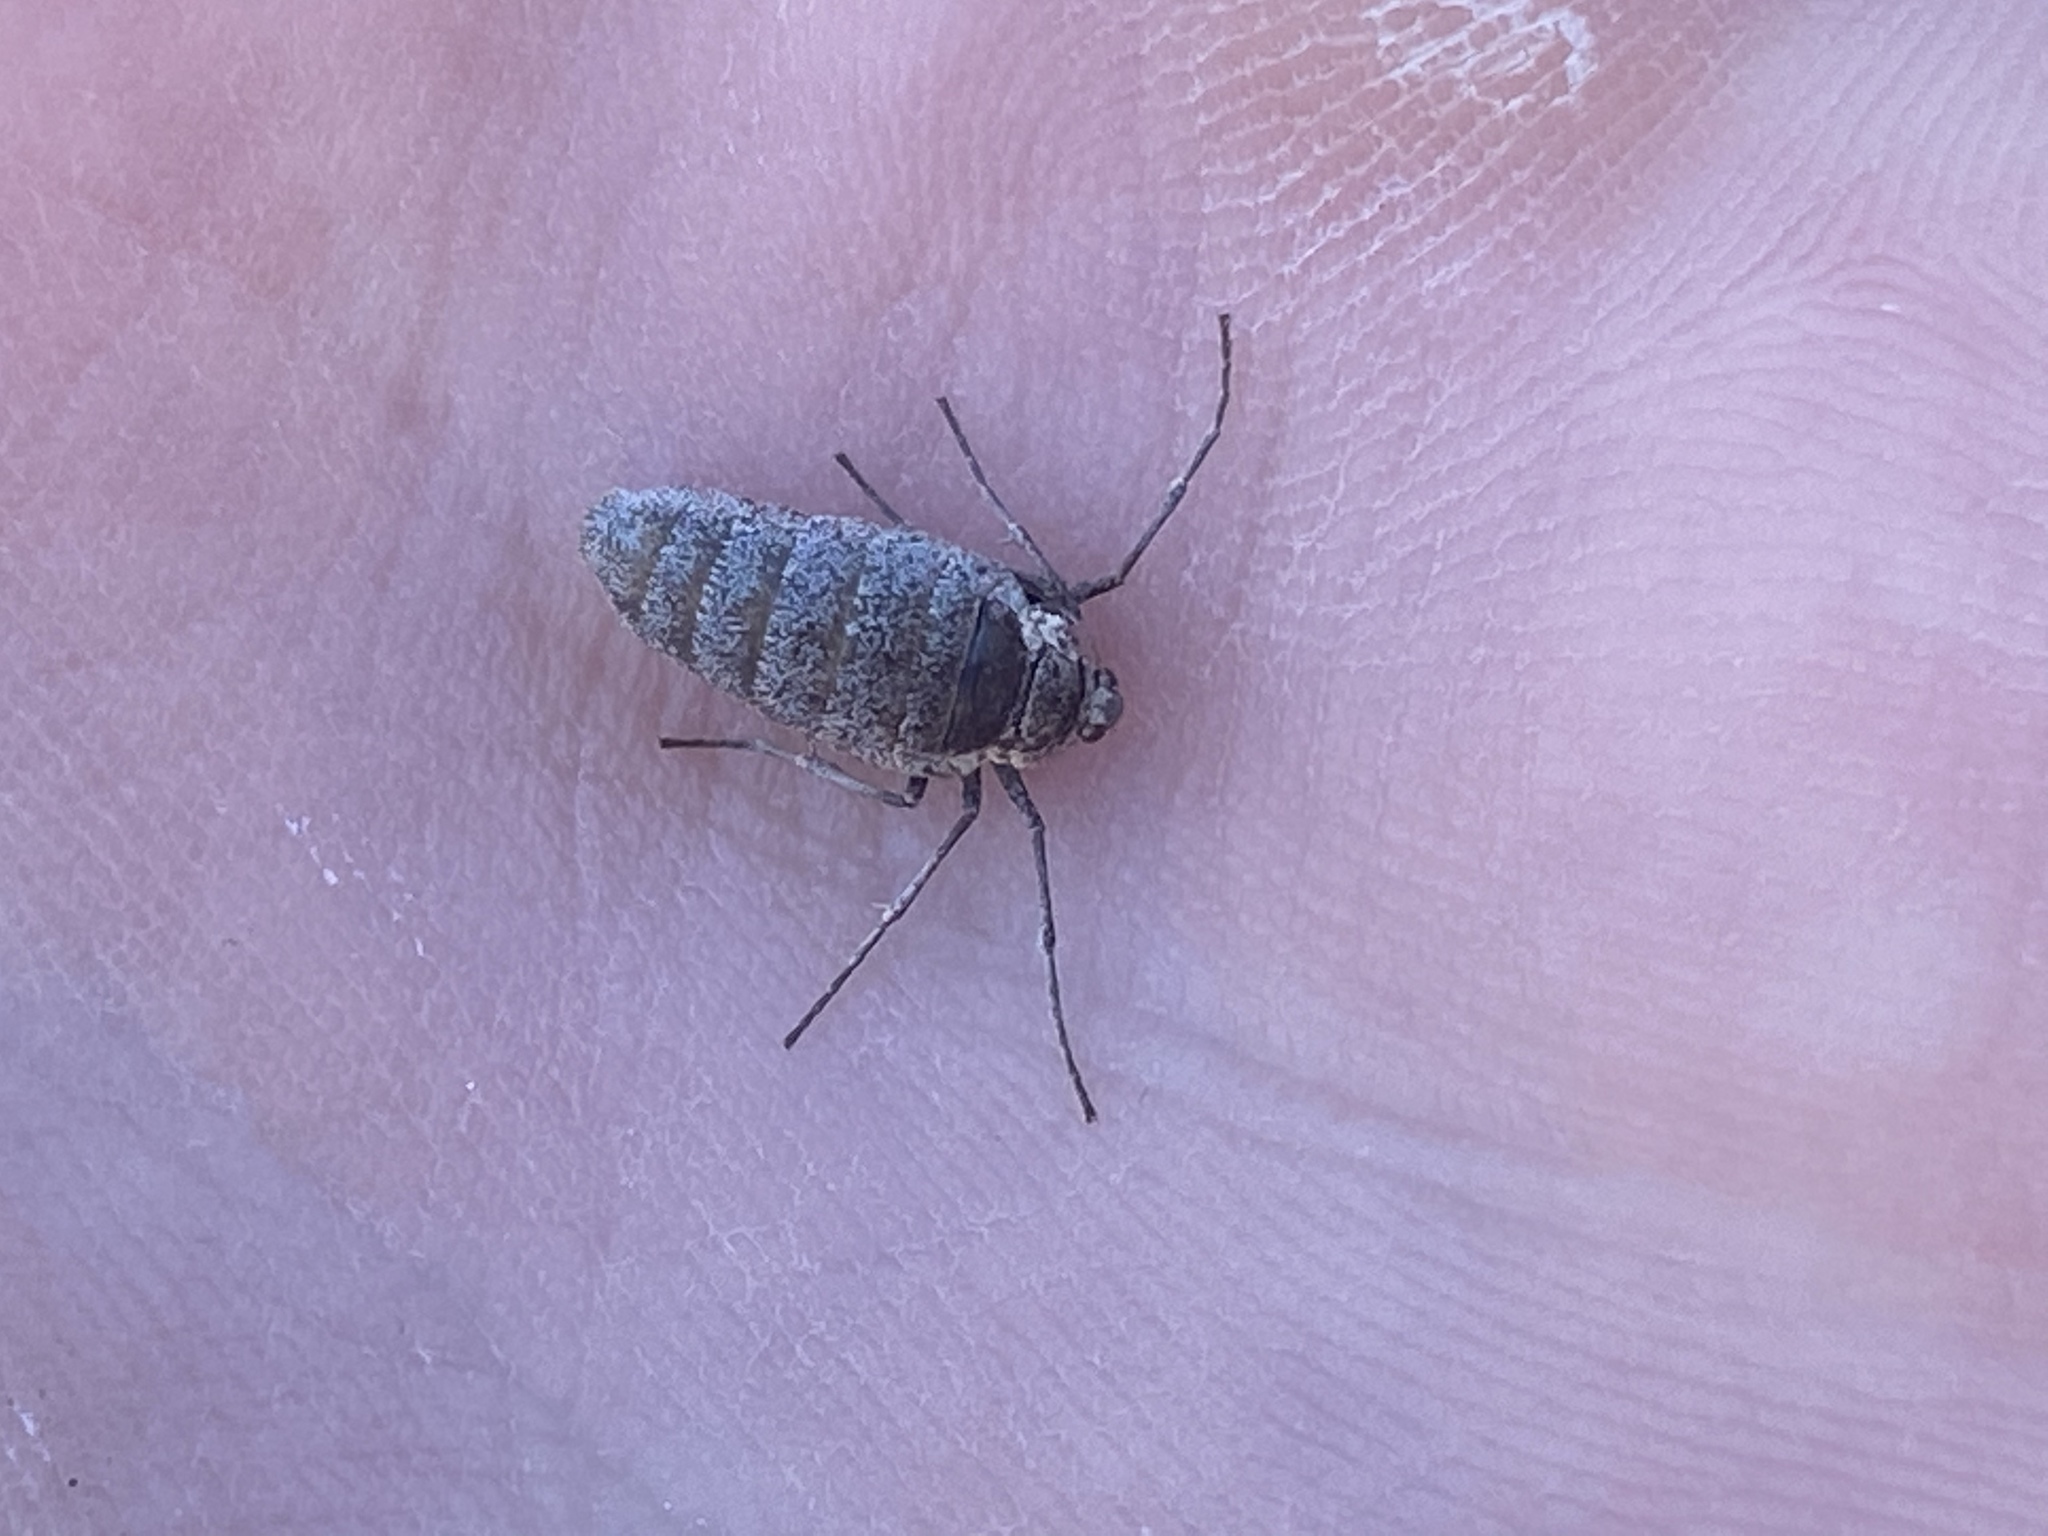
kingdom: Animalia
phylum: Arthropoda
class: Insecta
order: Lepidoptera
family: Geometridae
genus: Operophtera
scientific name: Operophtera bruceata
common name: Bruce spanworm
